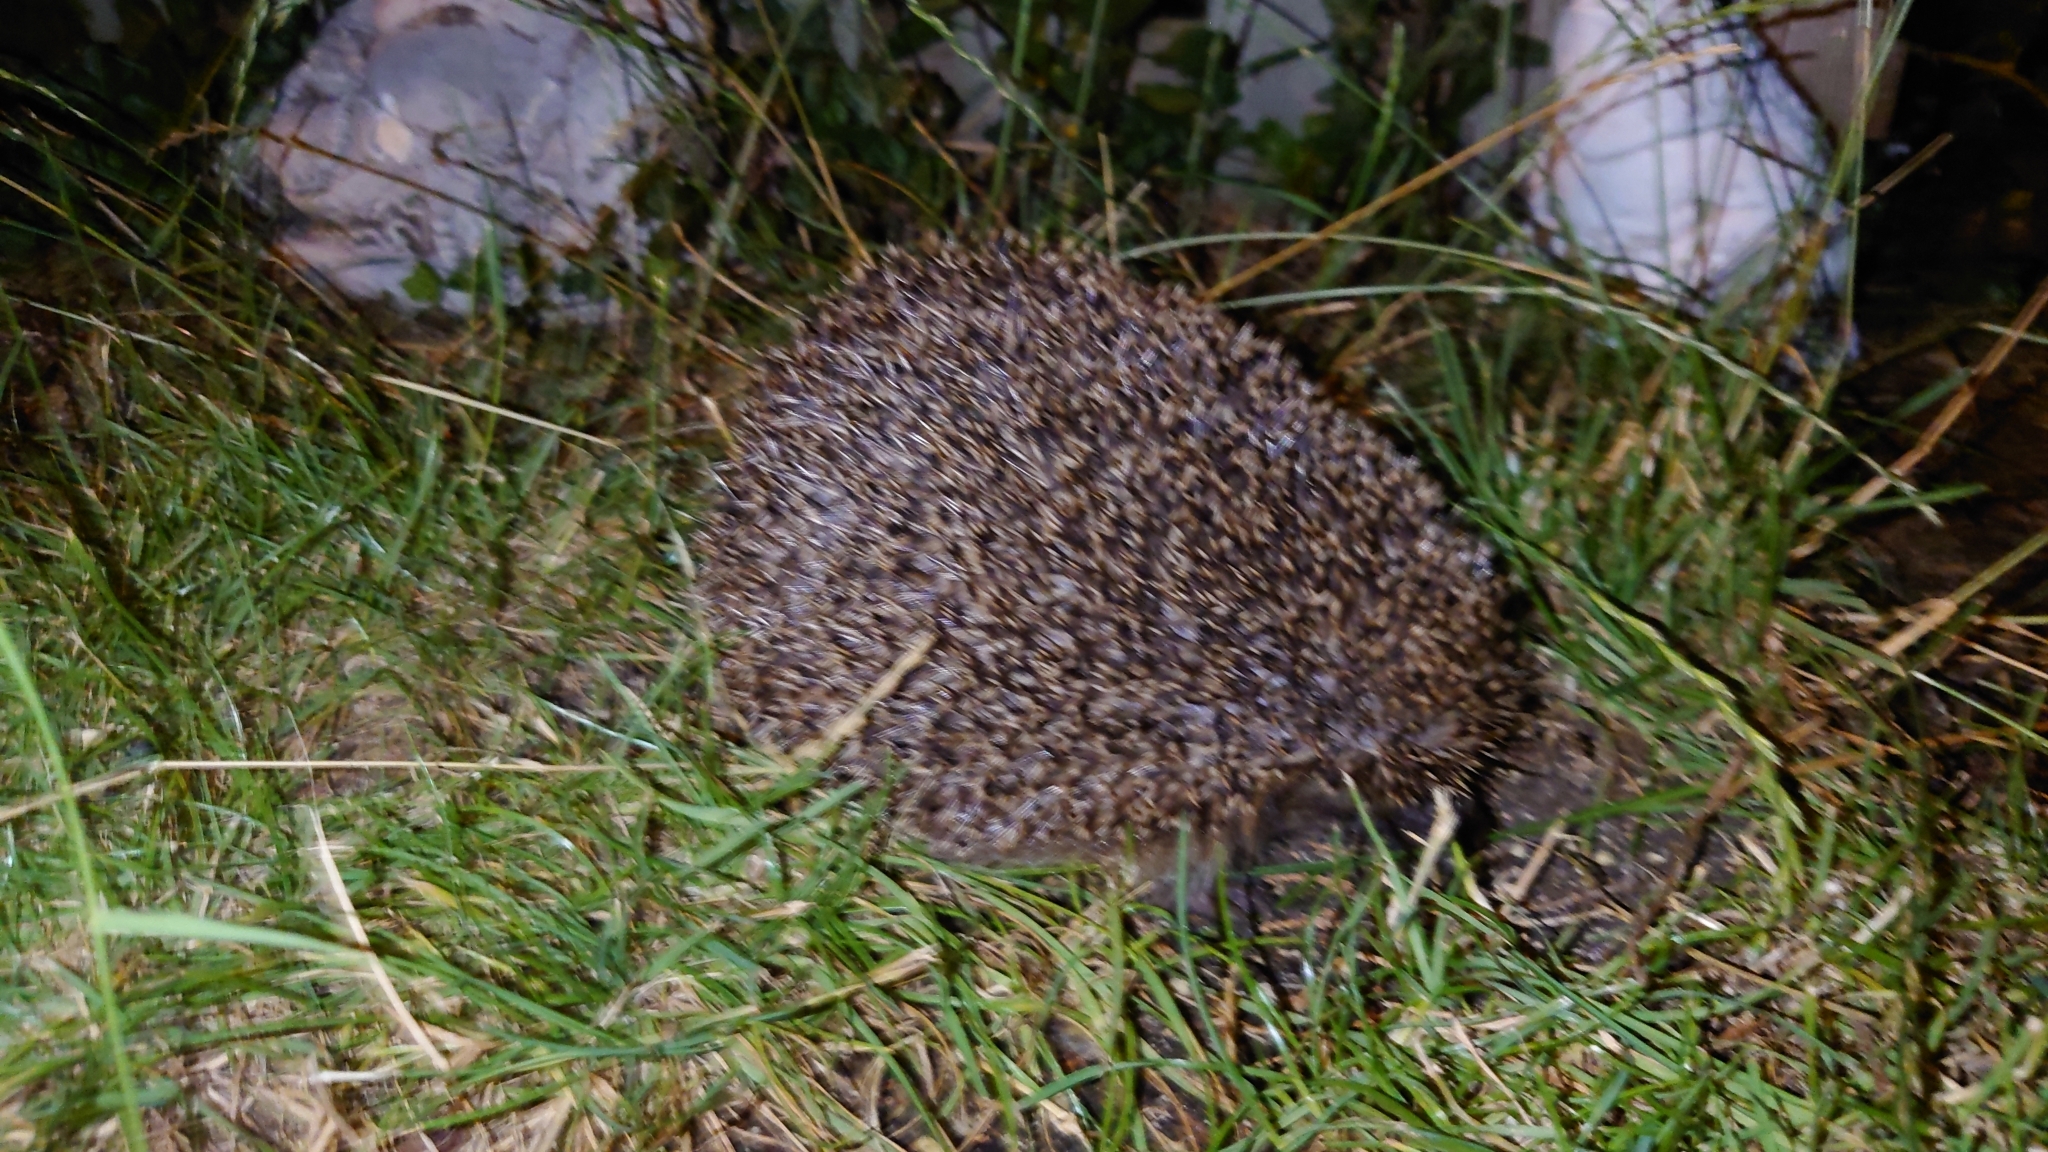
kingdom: Animalia
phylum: Chordata
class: Mammalia
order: Erinaceomorpha
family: Erinaceidae
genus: Erinaceus
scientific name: Erinaceus europaeus
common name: West european hedgehog
